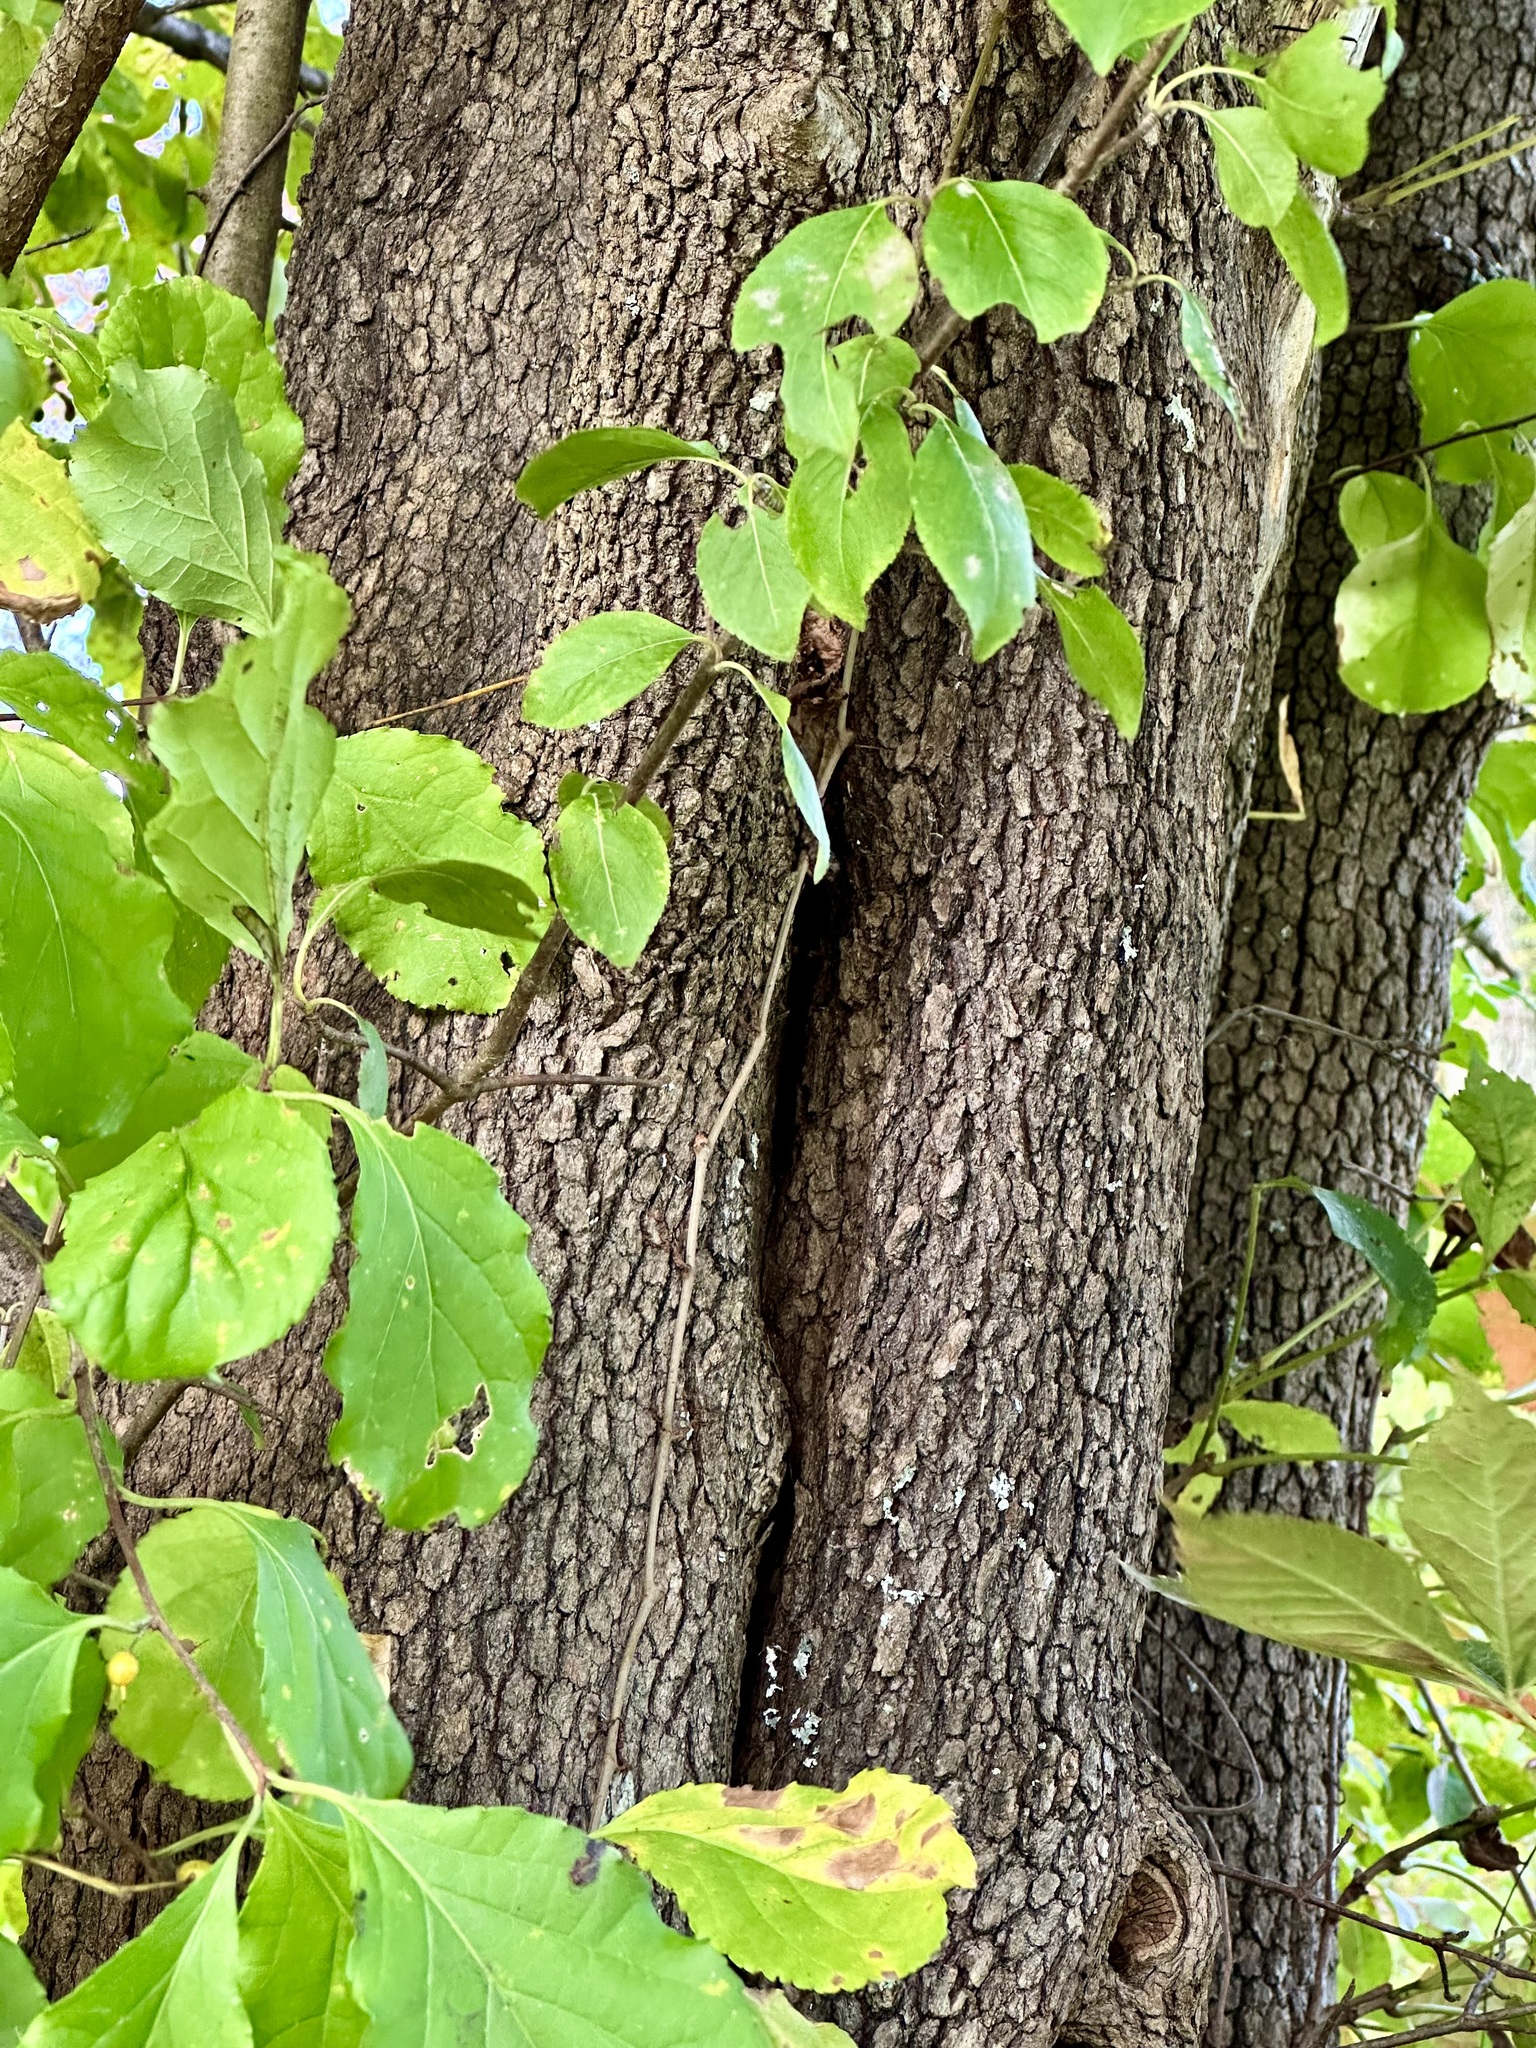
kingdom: Plantae
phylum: Tracheophyta
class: Magnoliopsida
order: Celastrales
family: Celastraceae
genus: Celastrus
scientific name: Celastrus orbiculatus
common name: Oriental bittersweet
